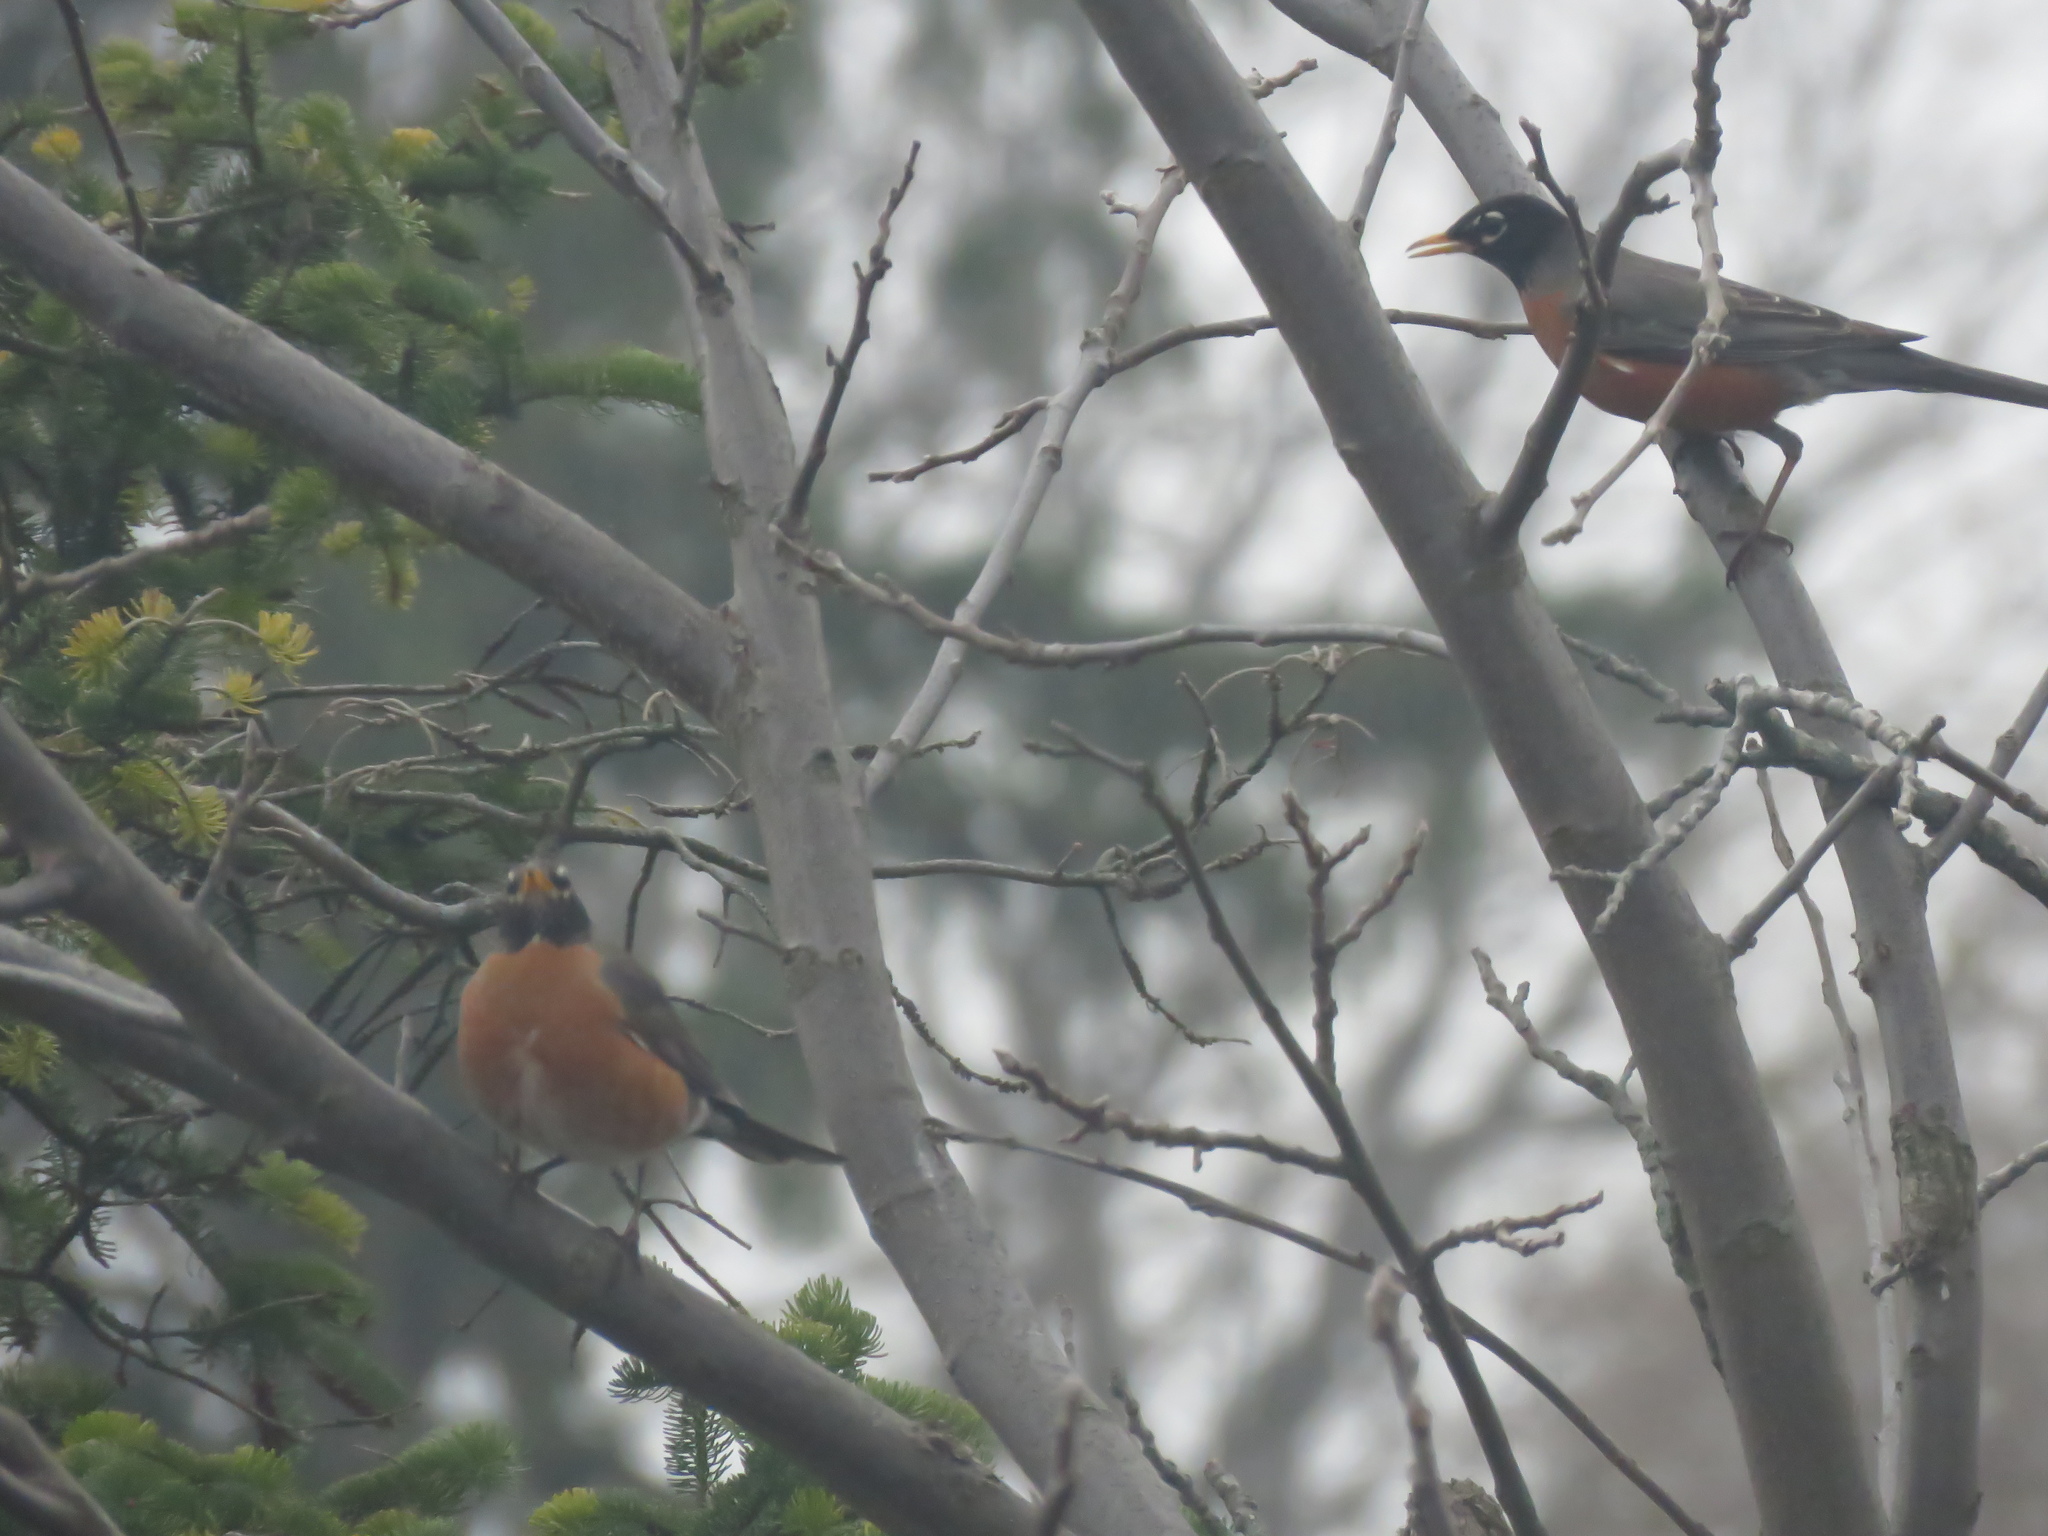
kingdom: Animalia
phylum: Chordata
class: Aves
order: Passeriformes
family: Turdidae
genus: Turdus
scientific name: Turdus migratorius
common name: American robin
